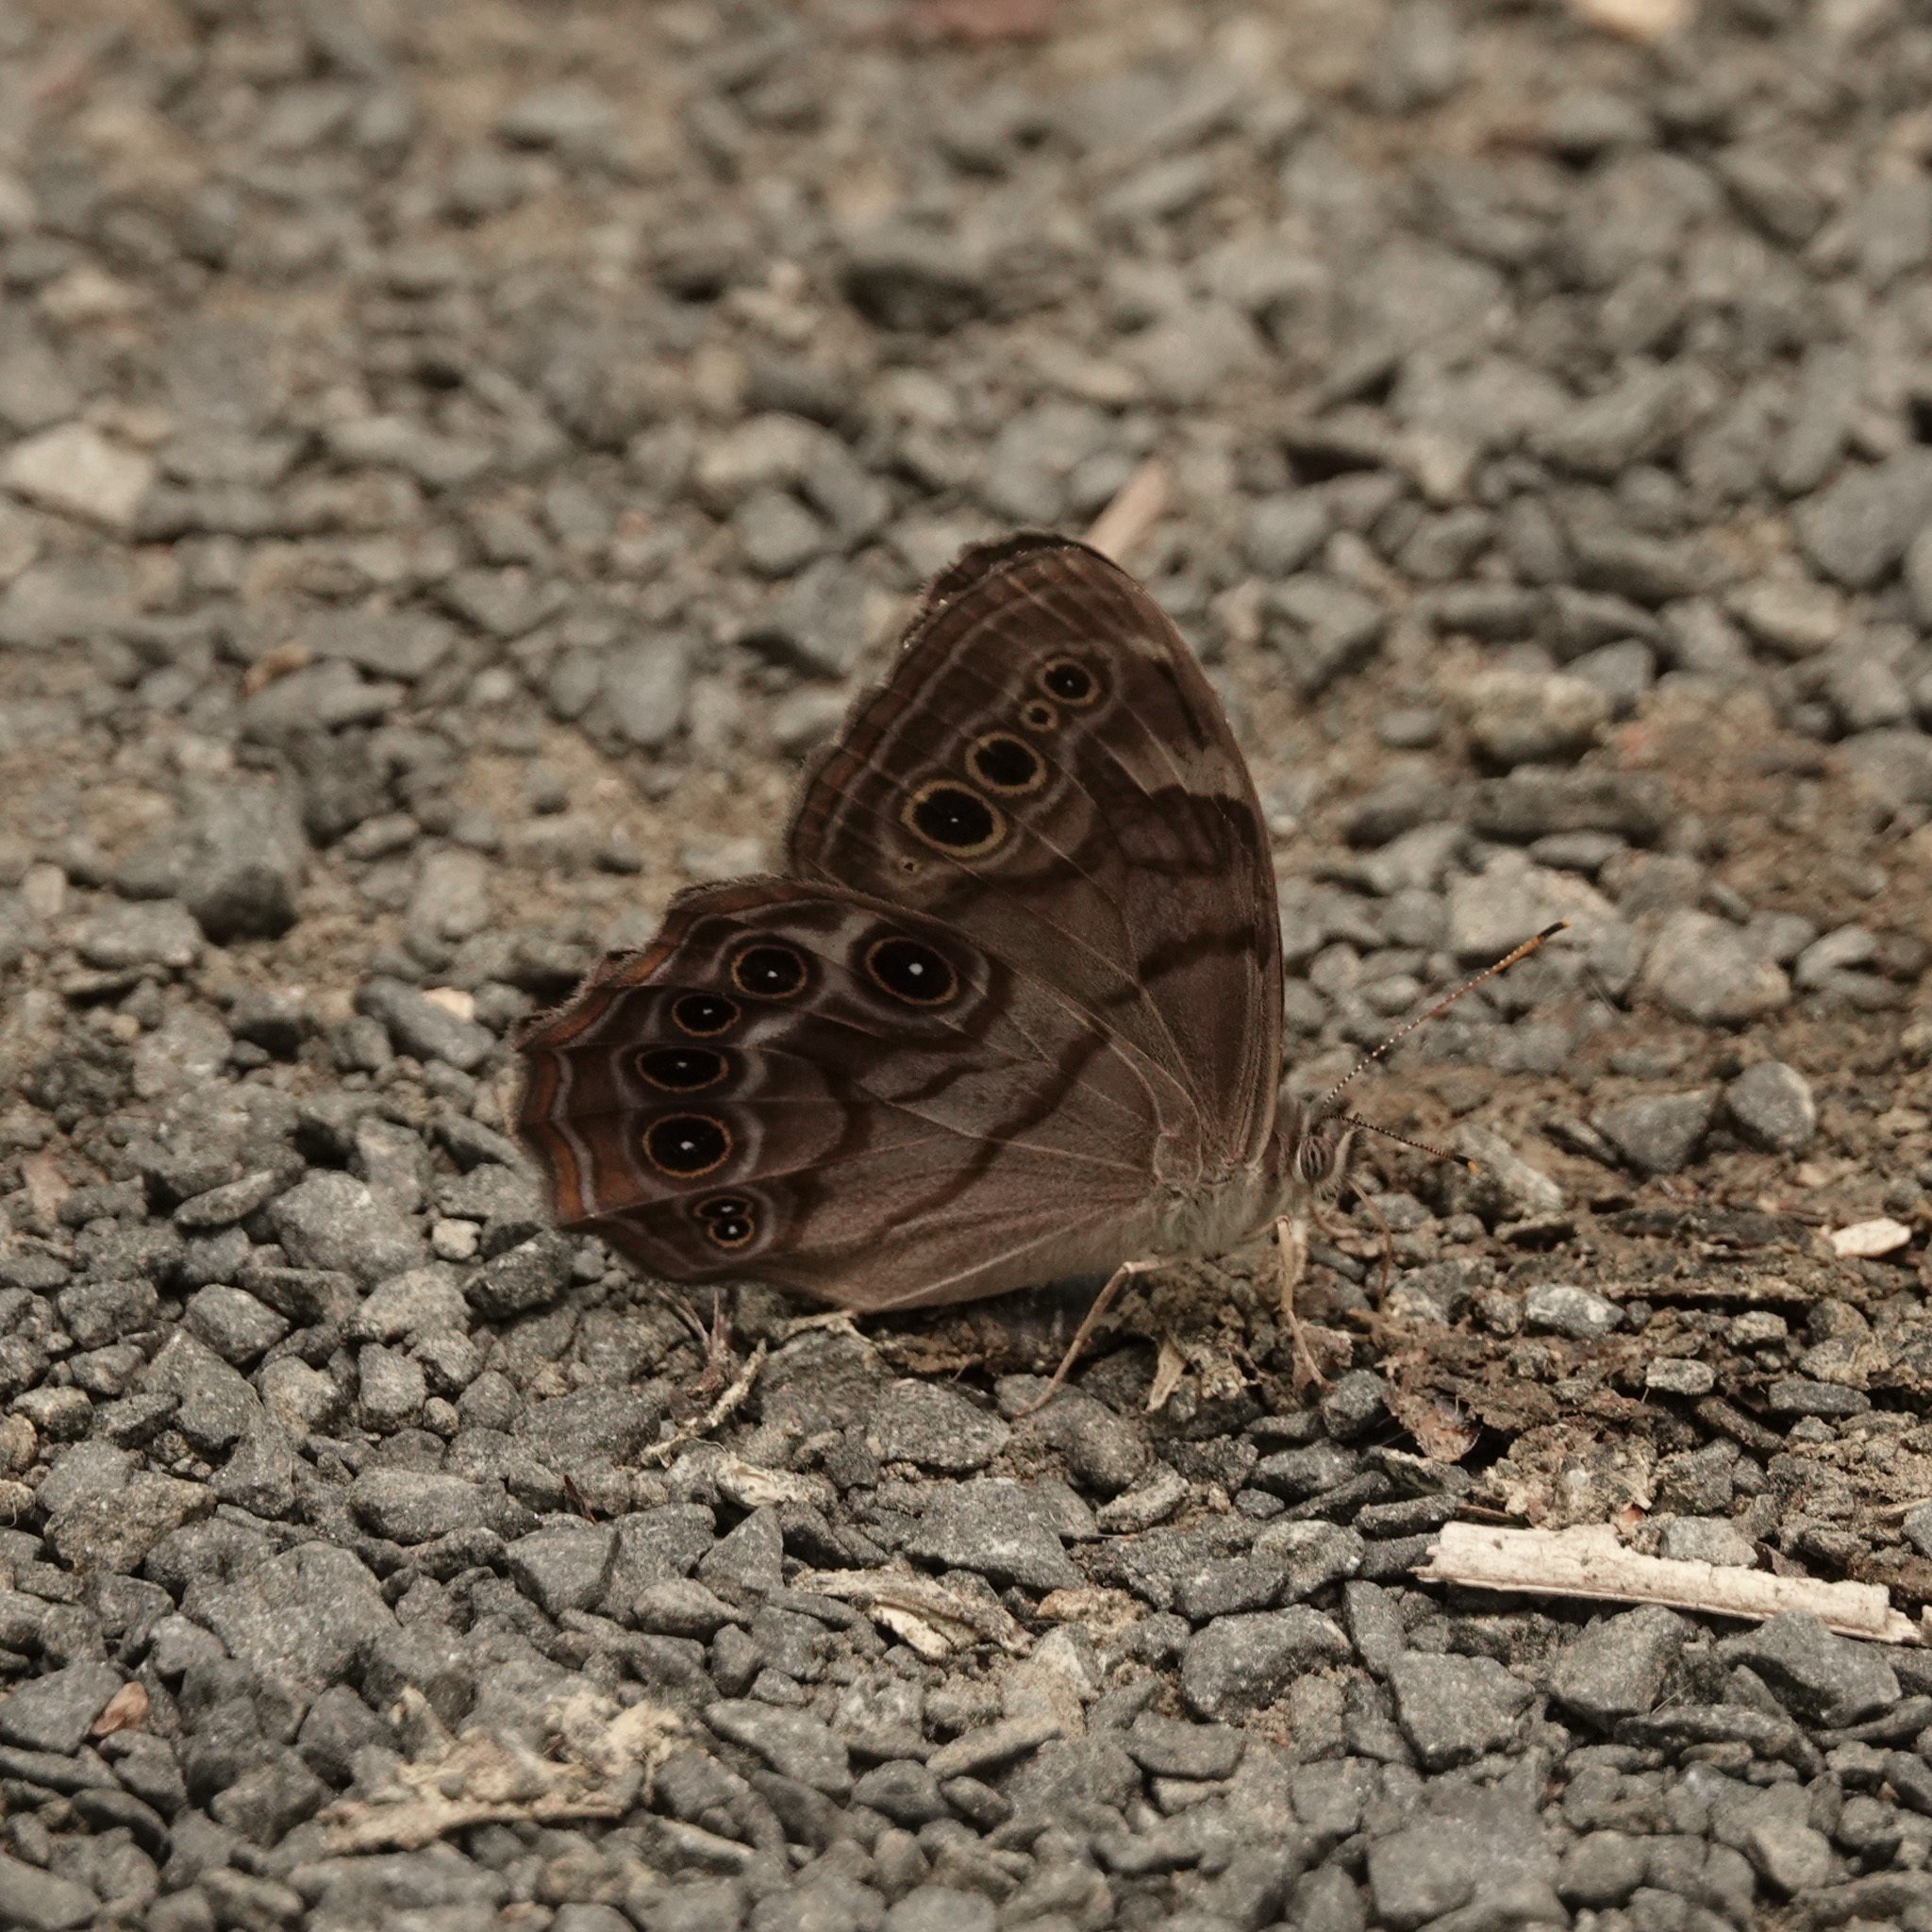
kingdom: Animalia
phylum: Arthropoda
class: Insecta
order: Lepidoptera
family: Nymphalidae
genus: Lethe
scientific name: Lethe anthedon
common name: Northern pearly-eye
